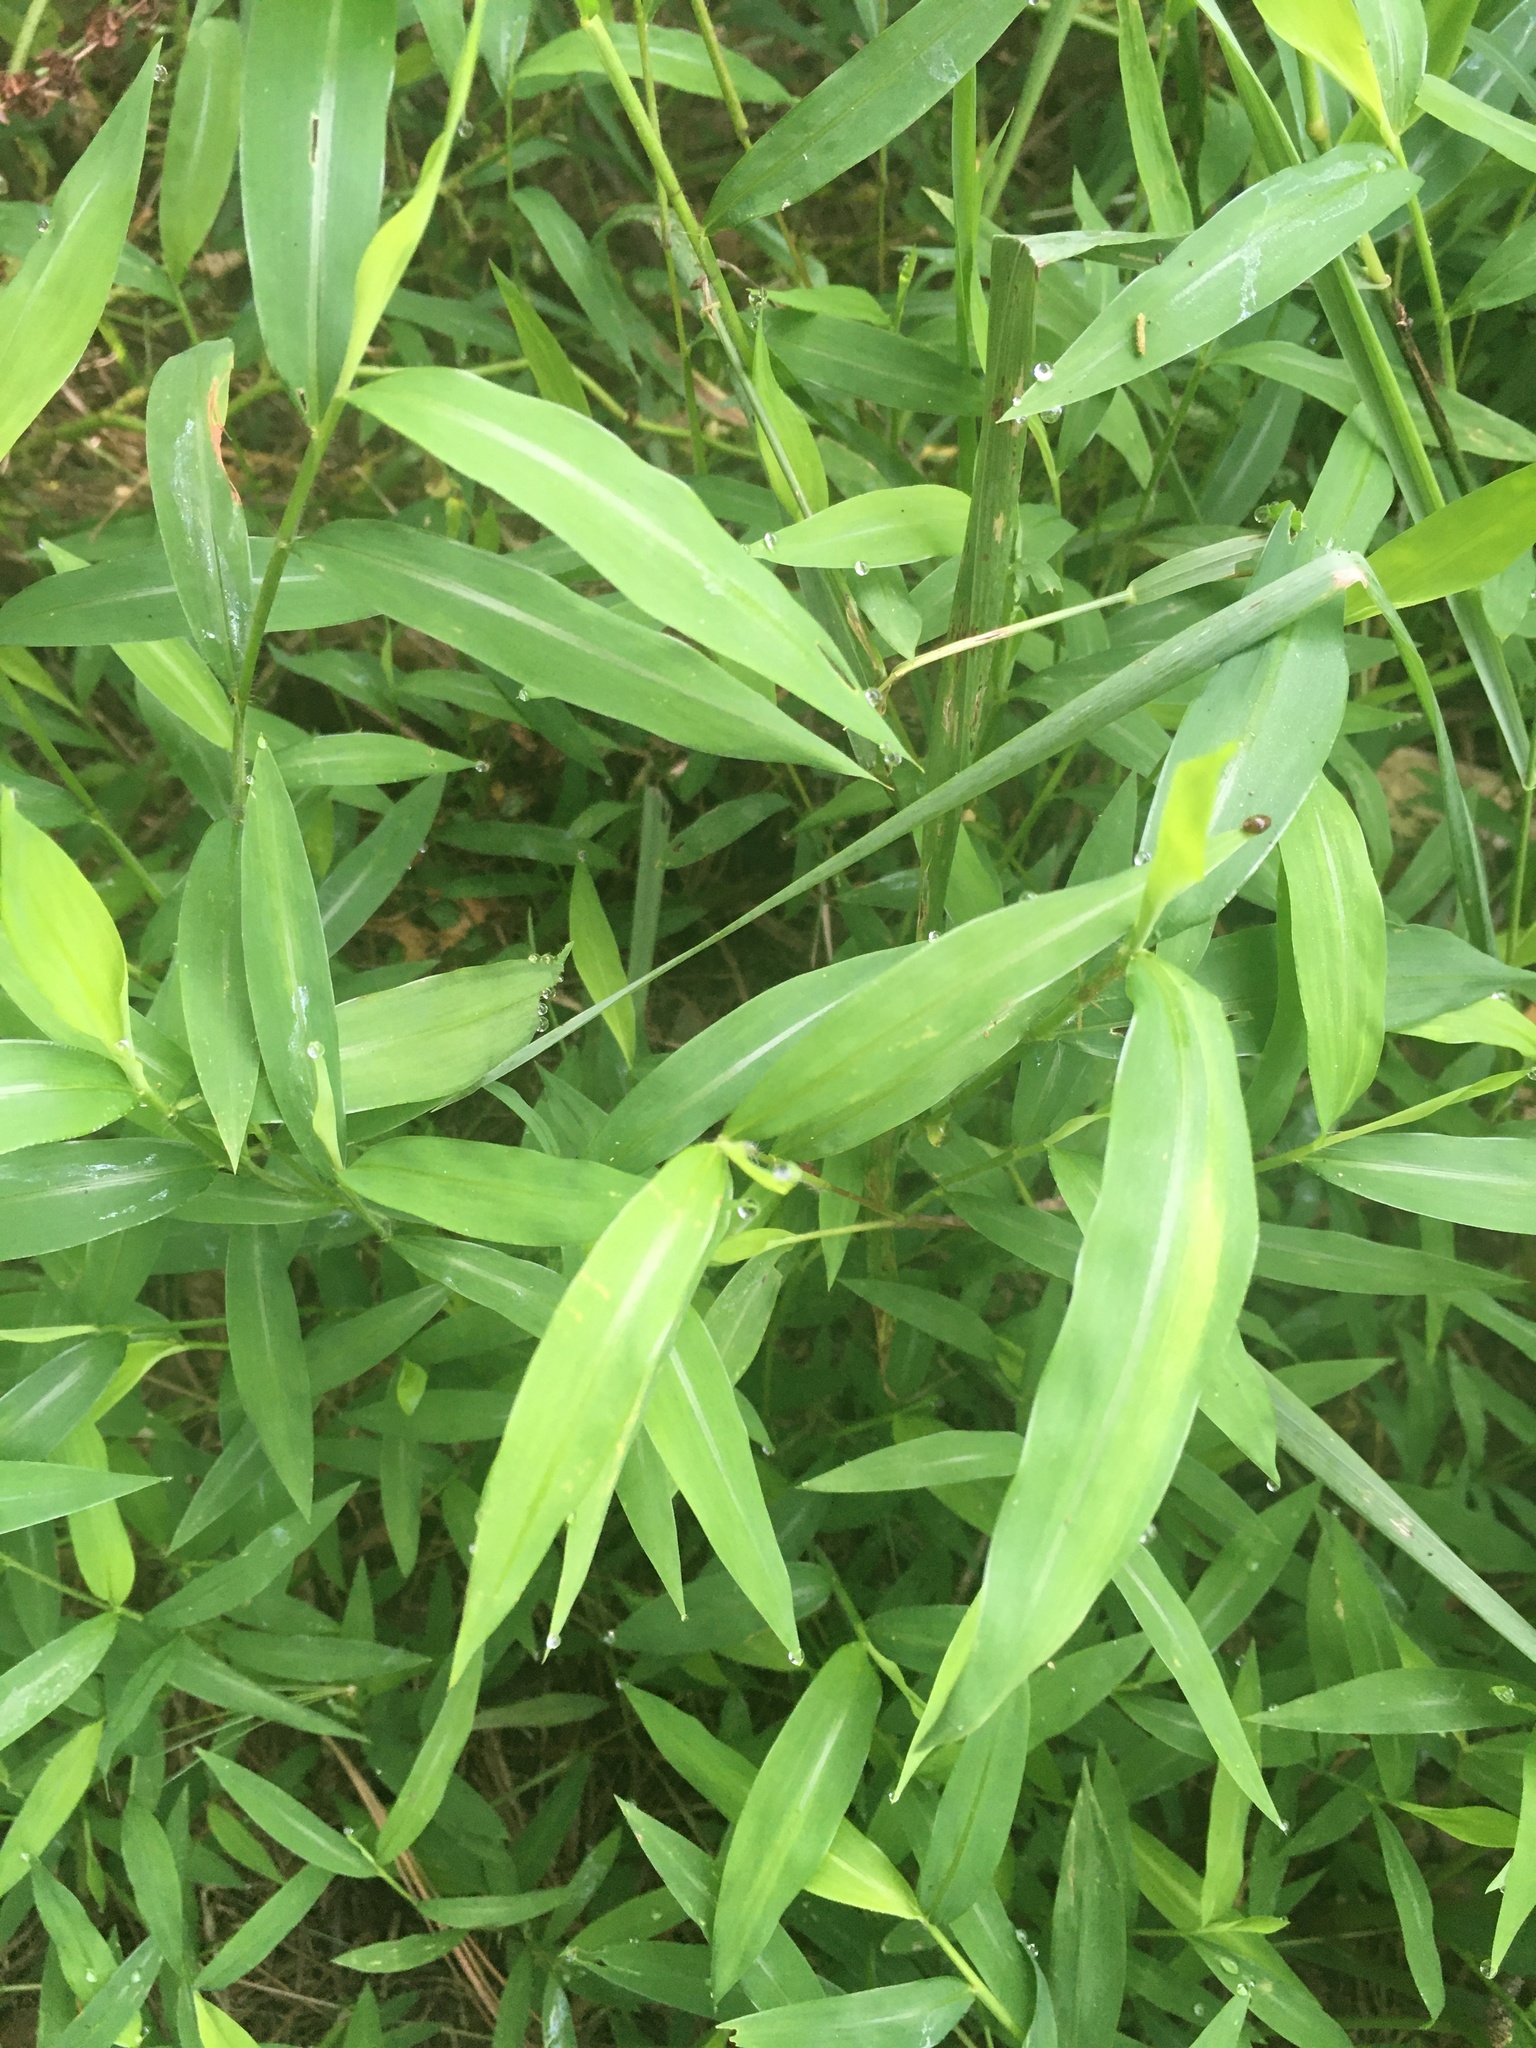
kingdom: Plantae
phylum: Tracheophyta
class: Liliopsida
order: Poales
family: Poaceae
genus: Microstegium
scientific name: Microstegium vimineum
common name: Japanese stiltgrass
